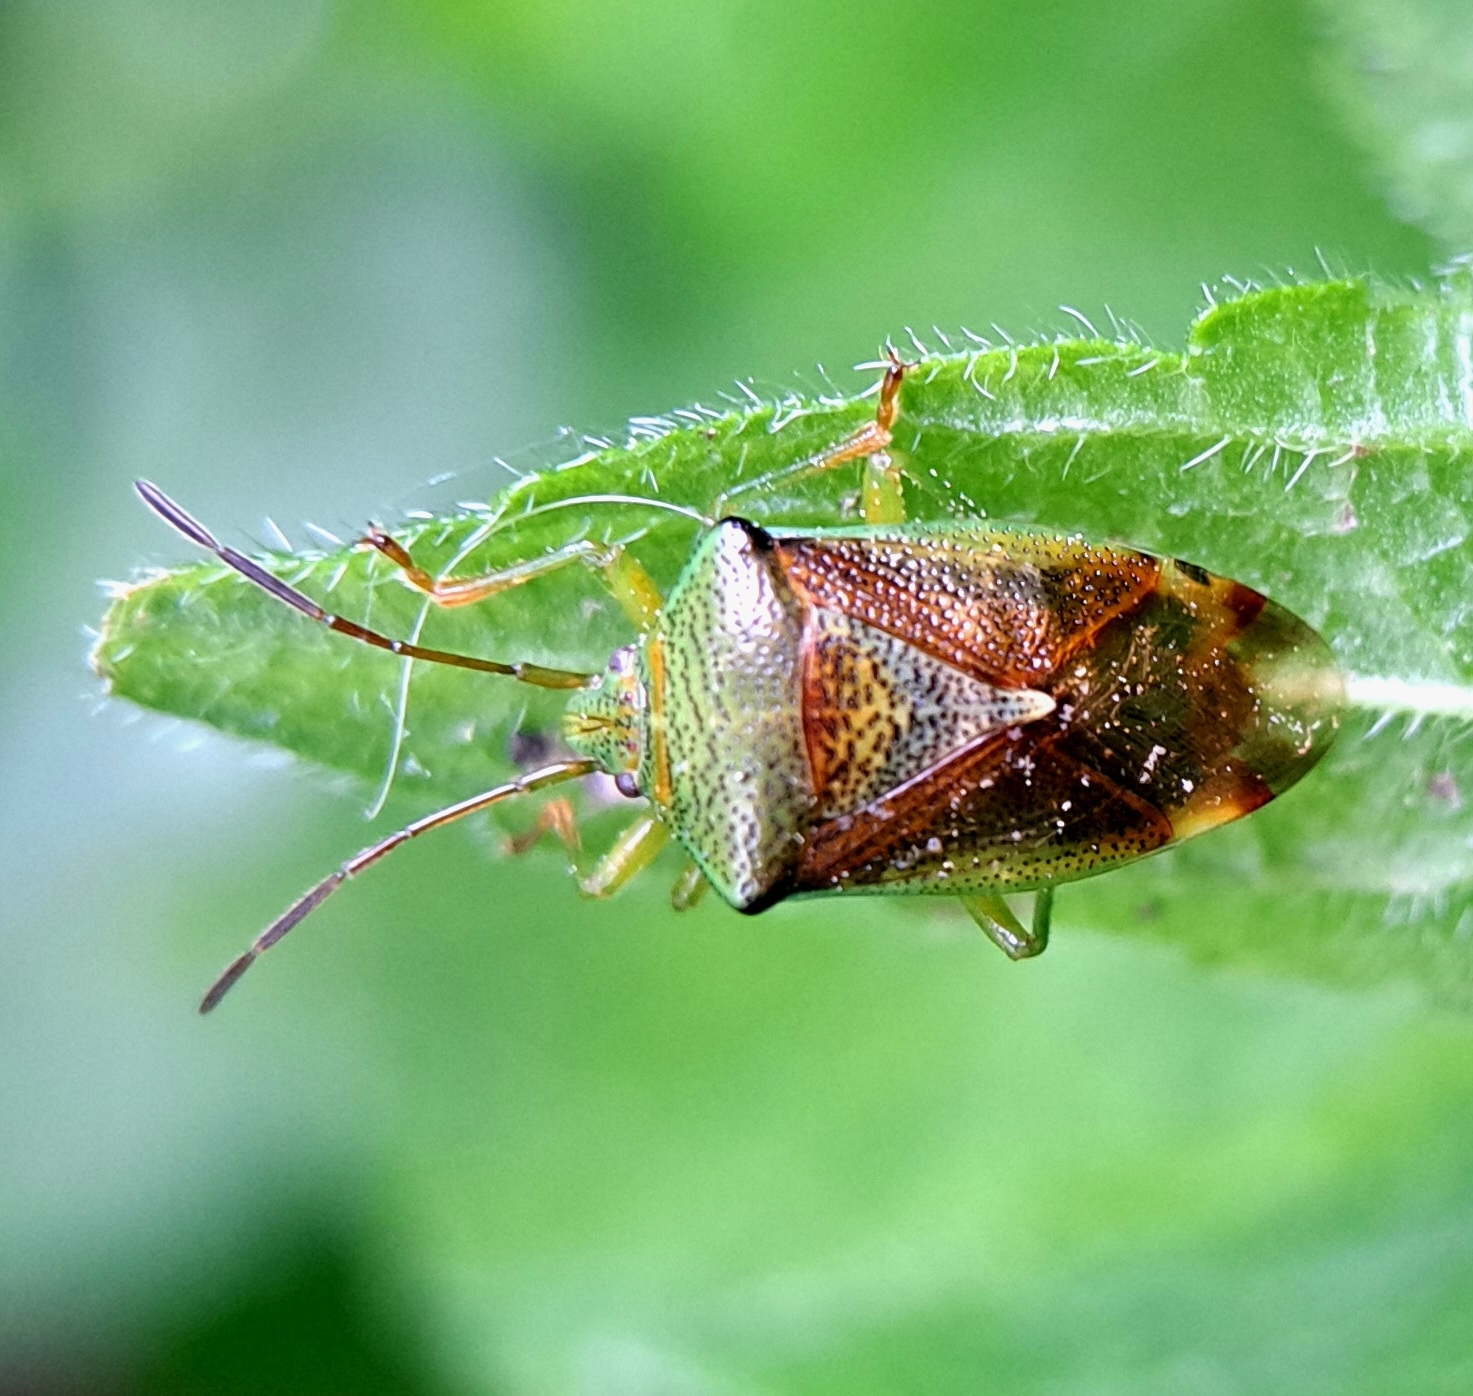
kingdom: Animalia
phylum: Arthropoda
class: Insecta
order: Hemiptera
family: Acanthosomatidae
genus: Elasmostethus
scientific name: Elasmostethus interstinctus
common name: Birch shieldbug
